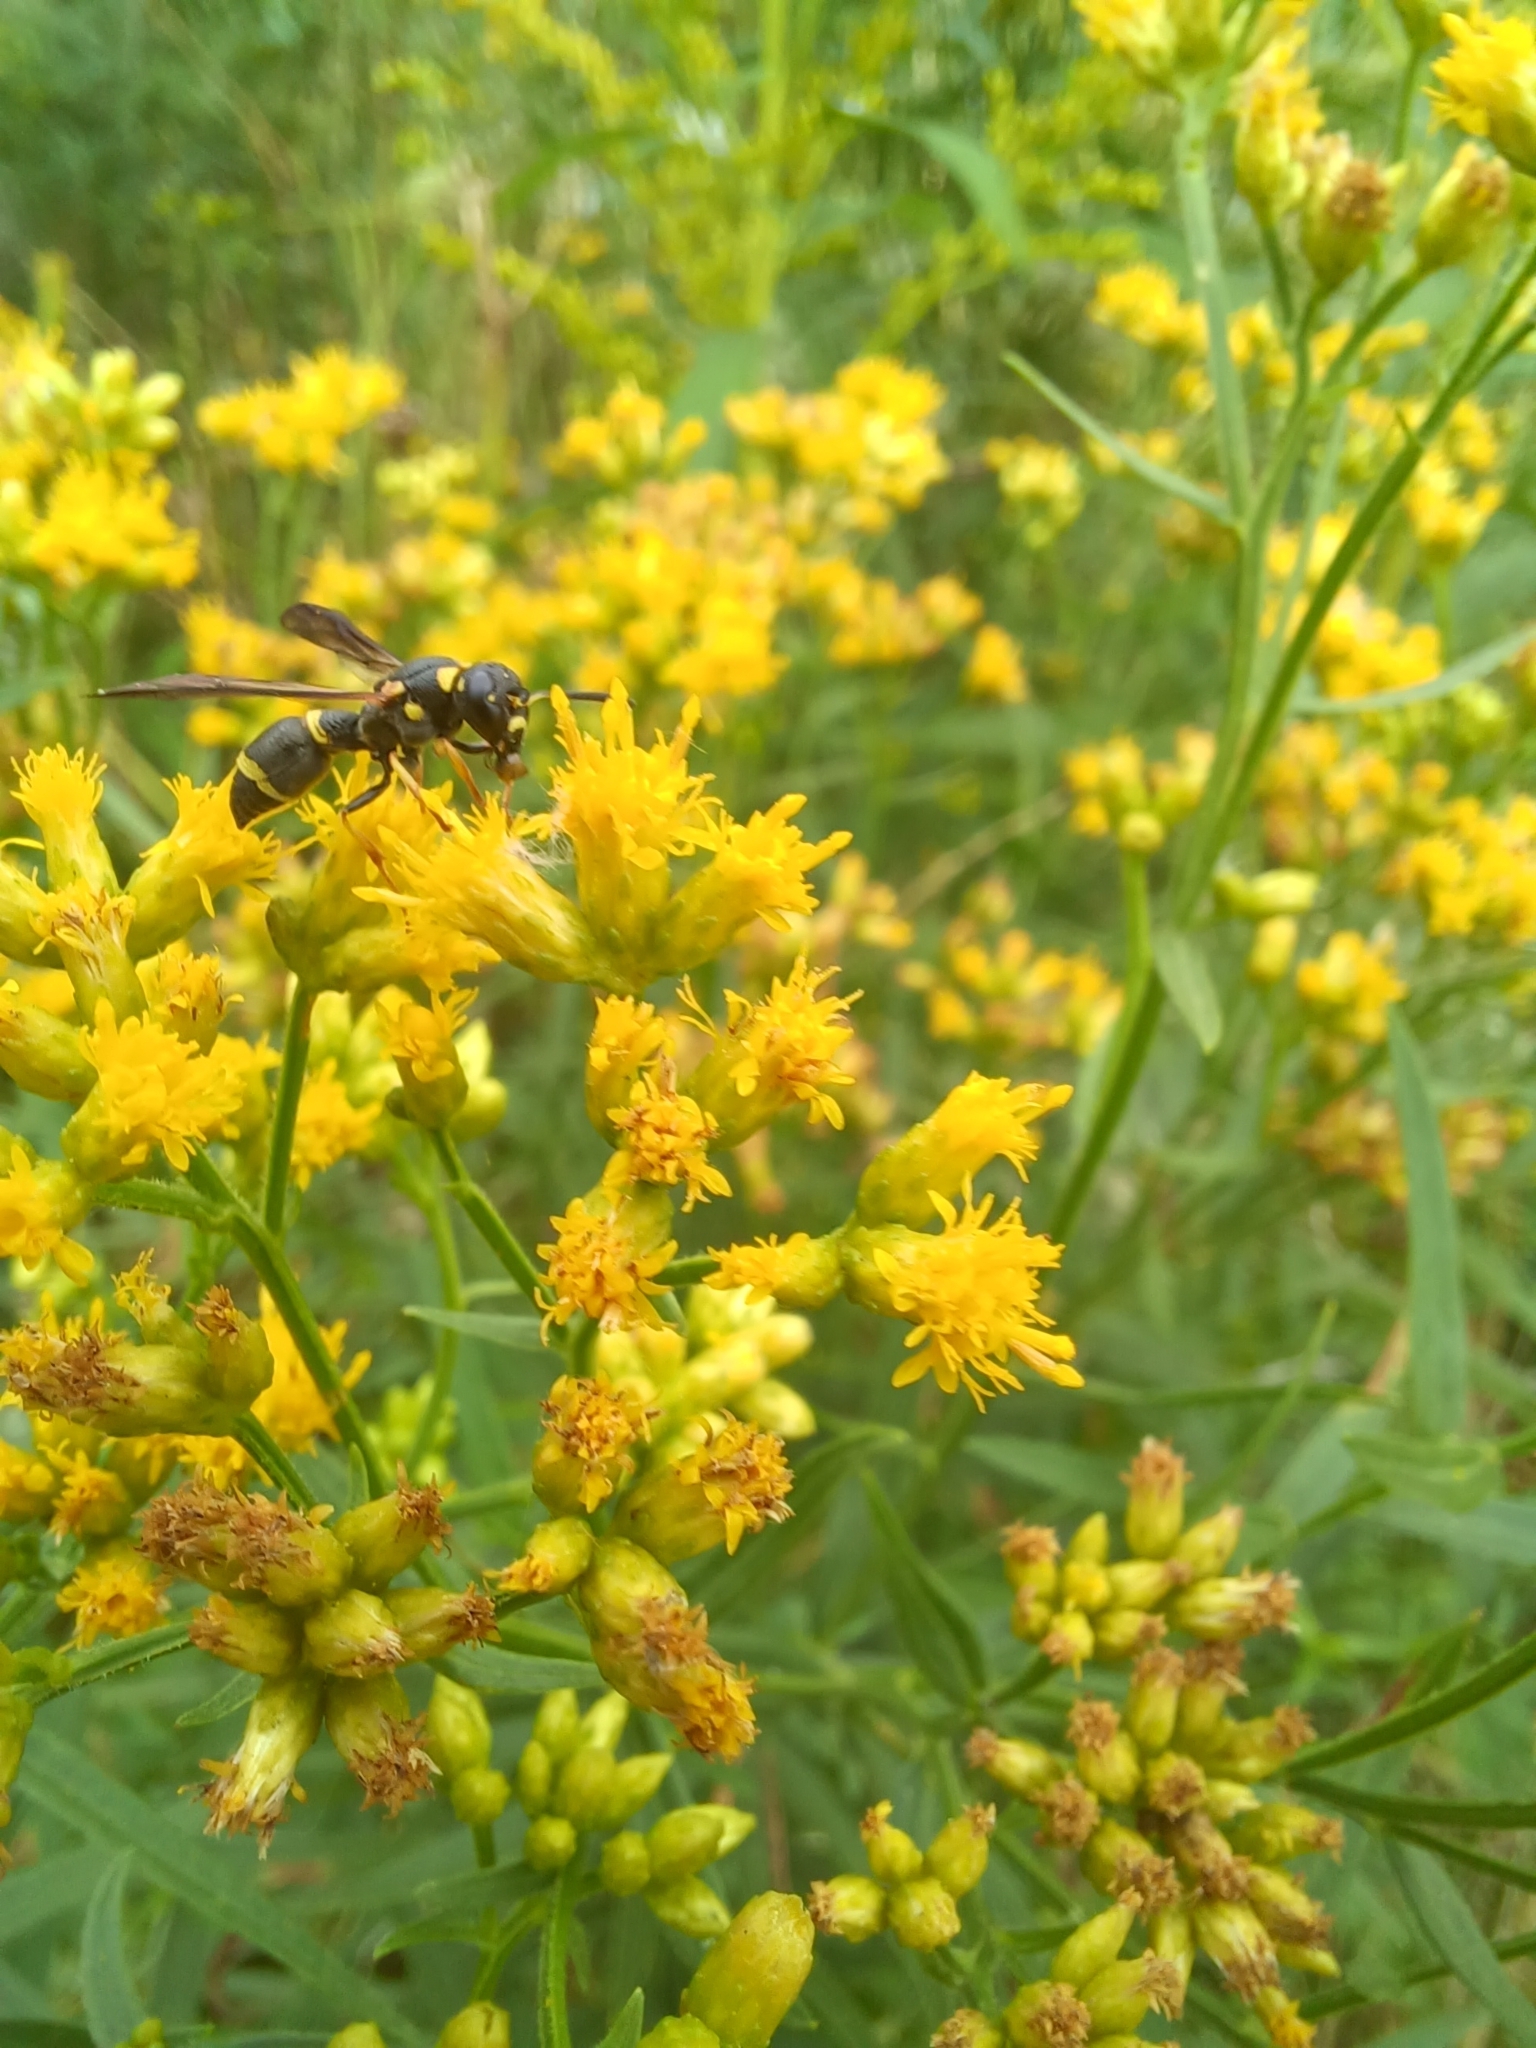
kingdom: Animalia
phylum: Arthropoda
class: Insecta
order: Hymenoptera
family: Eumenidae
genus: Parancistrocerus
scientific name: Parancistrocerus perennis
